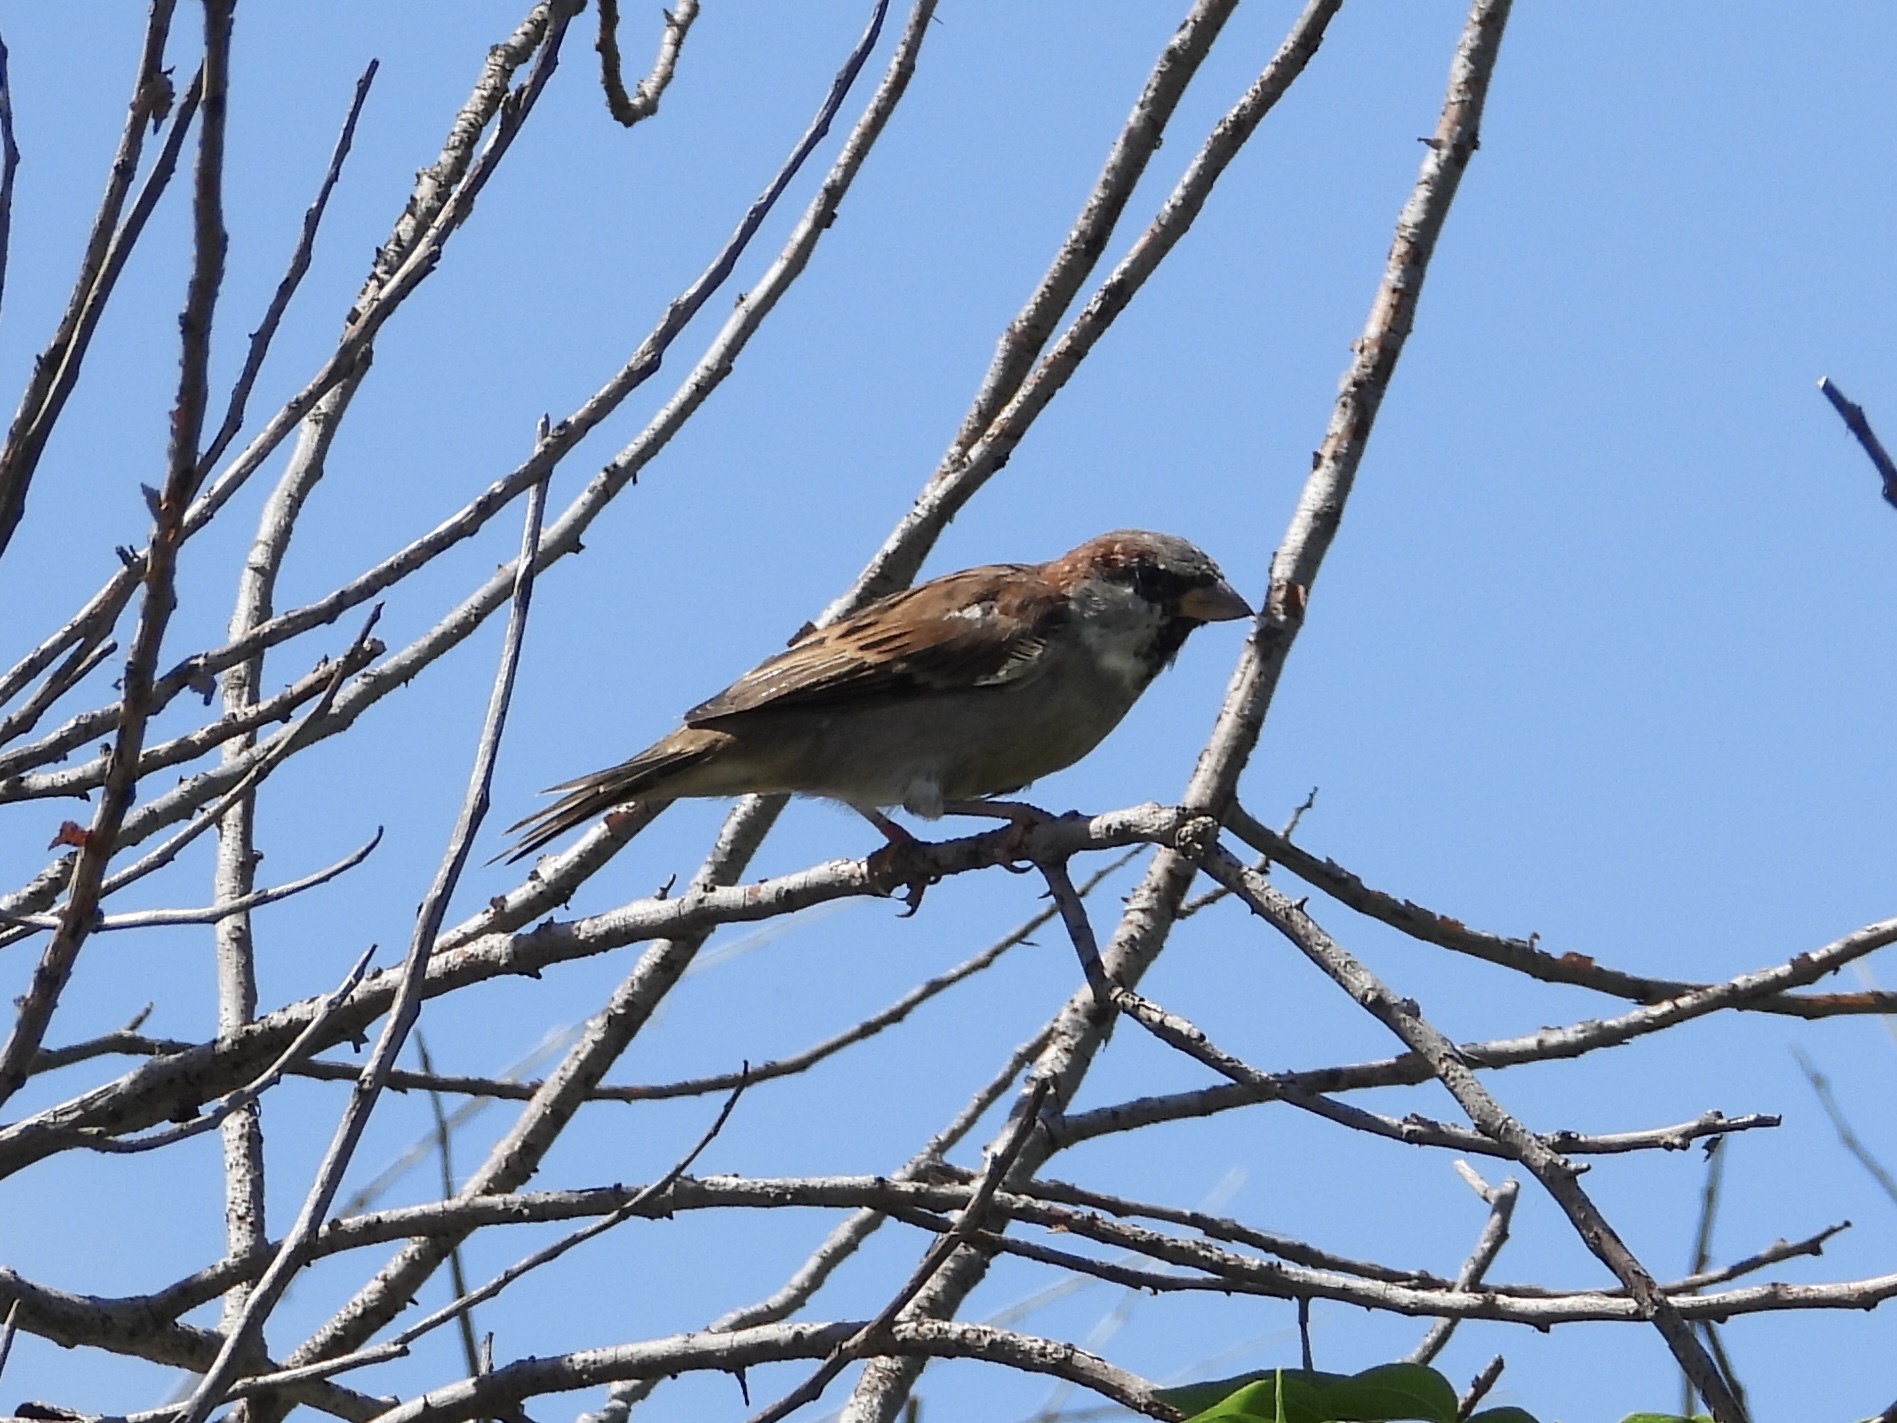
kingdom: Animalia
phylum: Chordata
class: Aves
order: Passeriformes
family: Passeridae
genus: Passer
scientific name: Passer domesticus
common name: House sparrow
